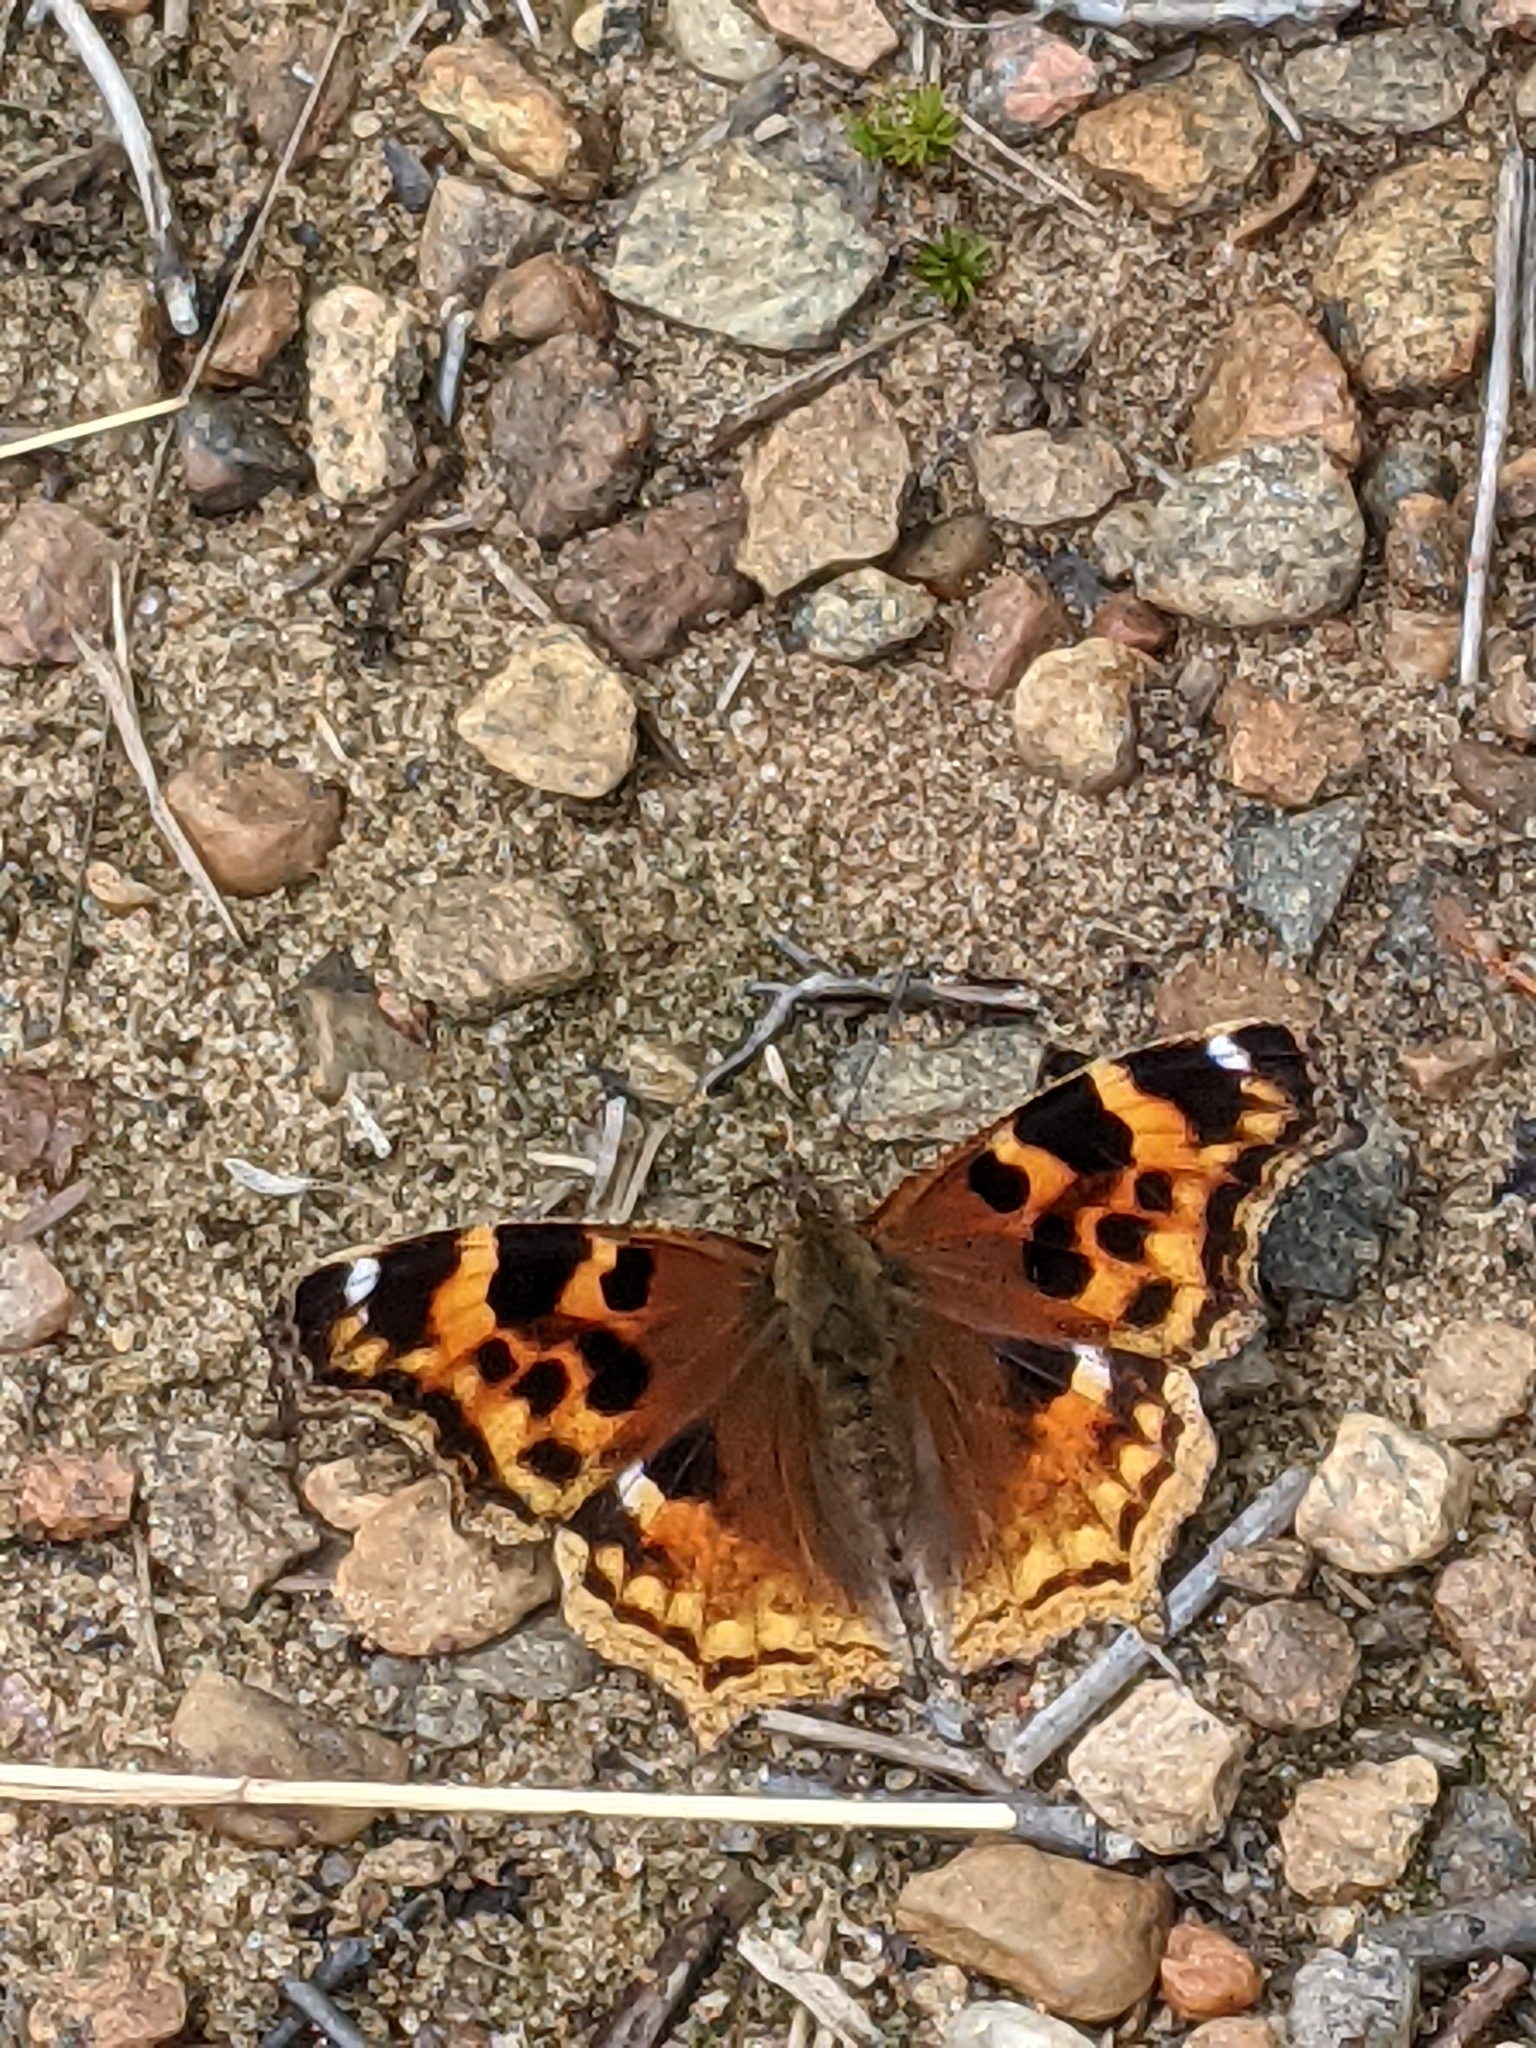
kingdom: Animalia
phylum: Arthropoda
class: Insecta
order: Lepidoptera
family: Nymphalidae
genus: Polygonia
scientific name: Polygonia vaualbum
